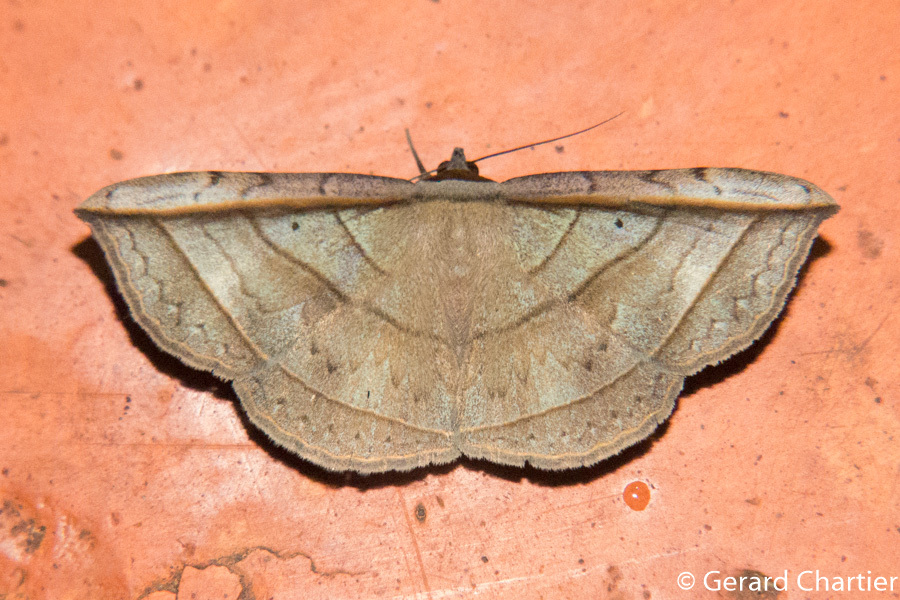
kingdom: Animalia
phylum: Arthropoda
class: Insecta
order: Lepidoptera
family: Erebidae
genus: Entomogramma
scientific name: Entomogramma fautrix
